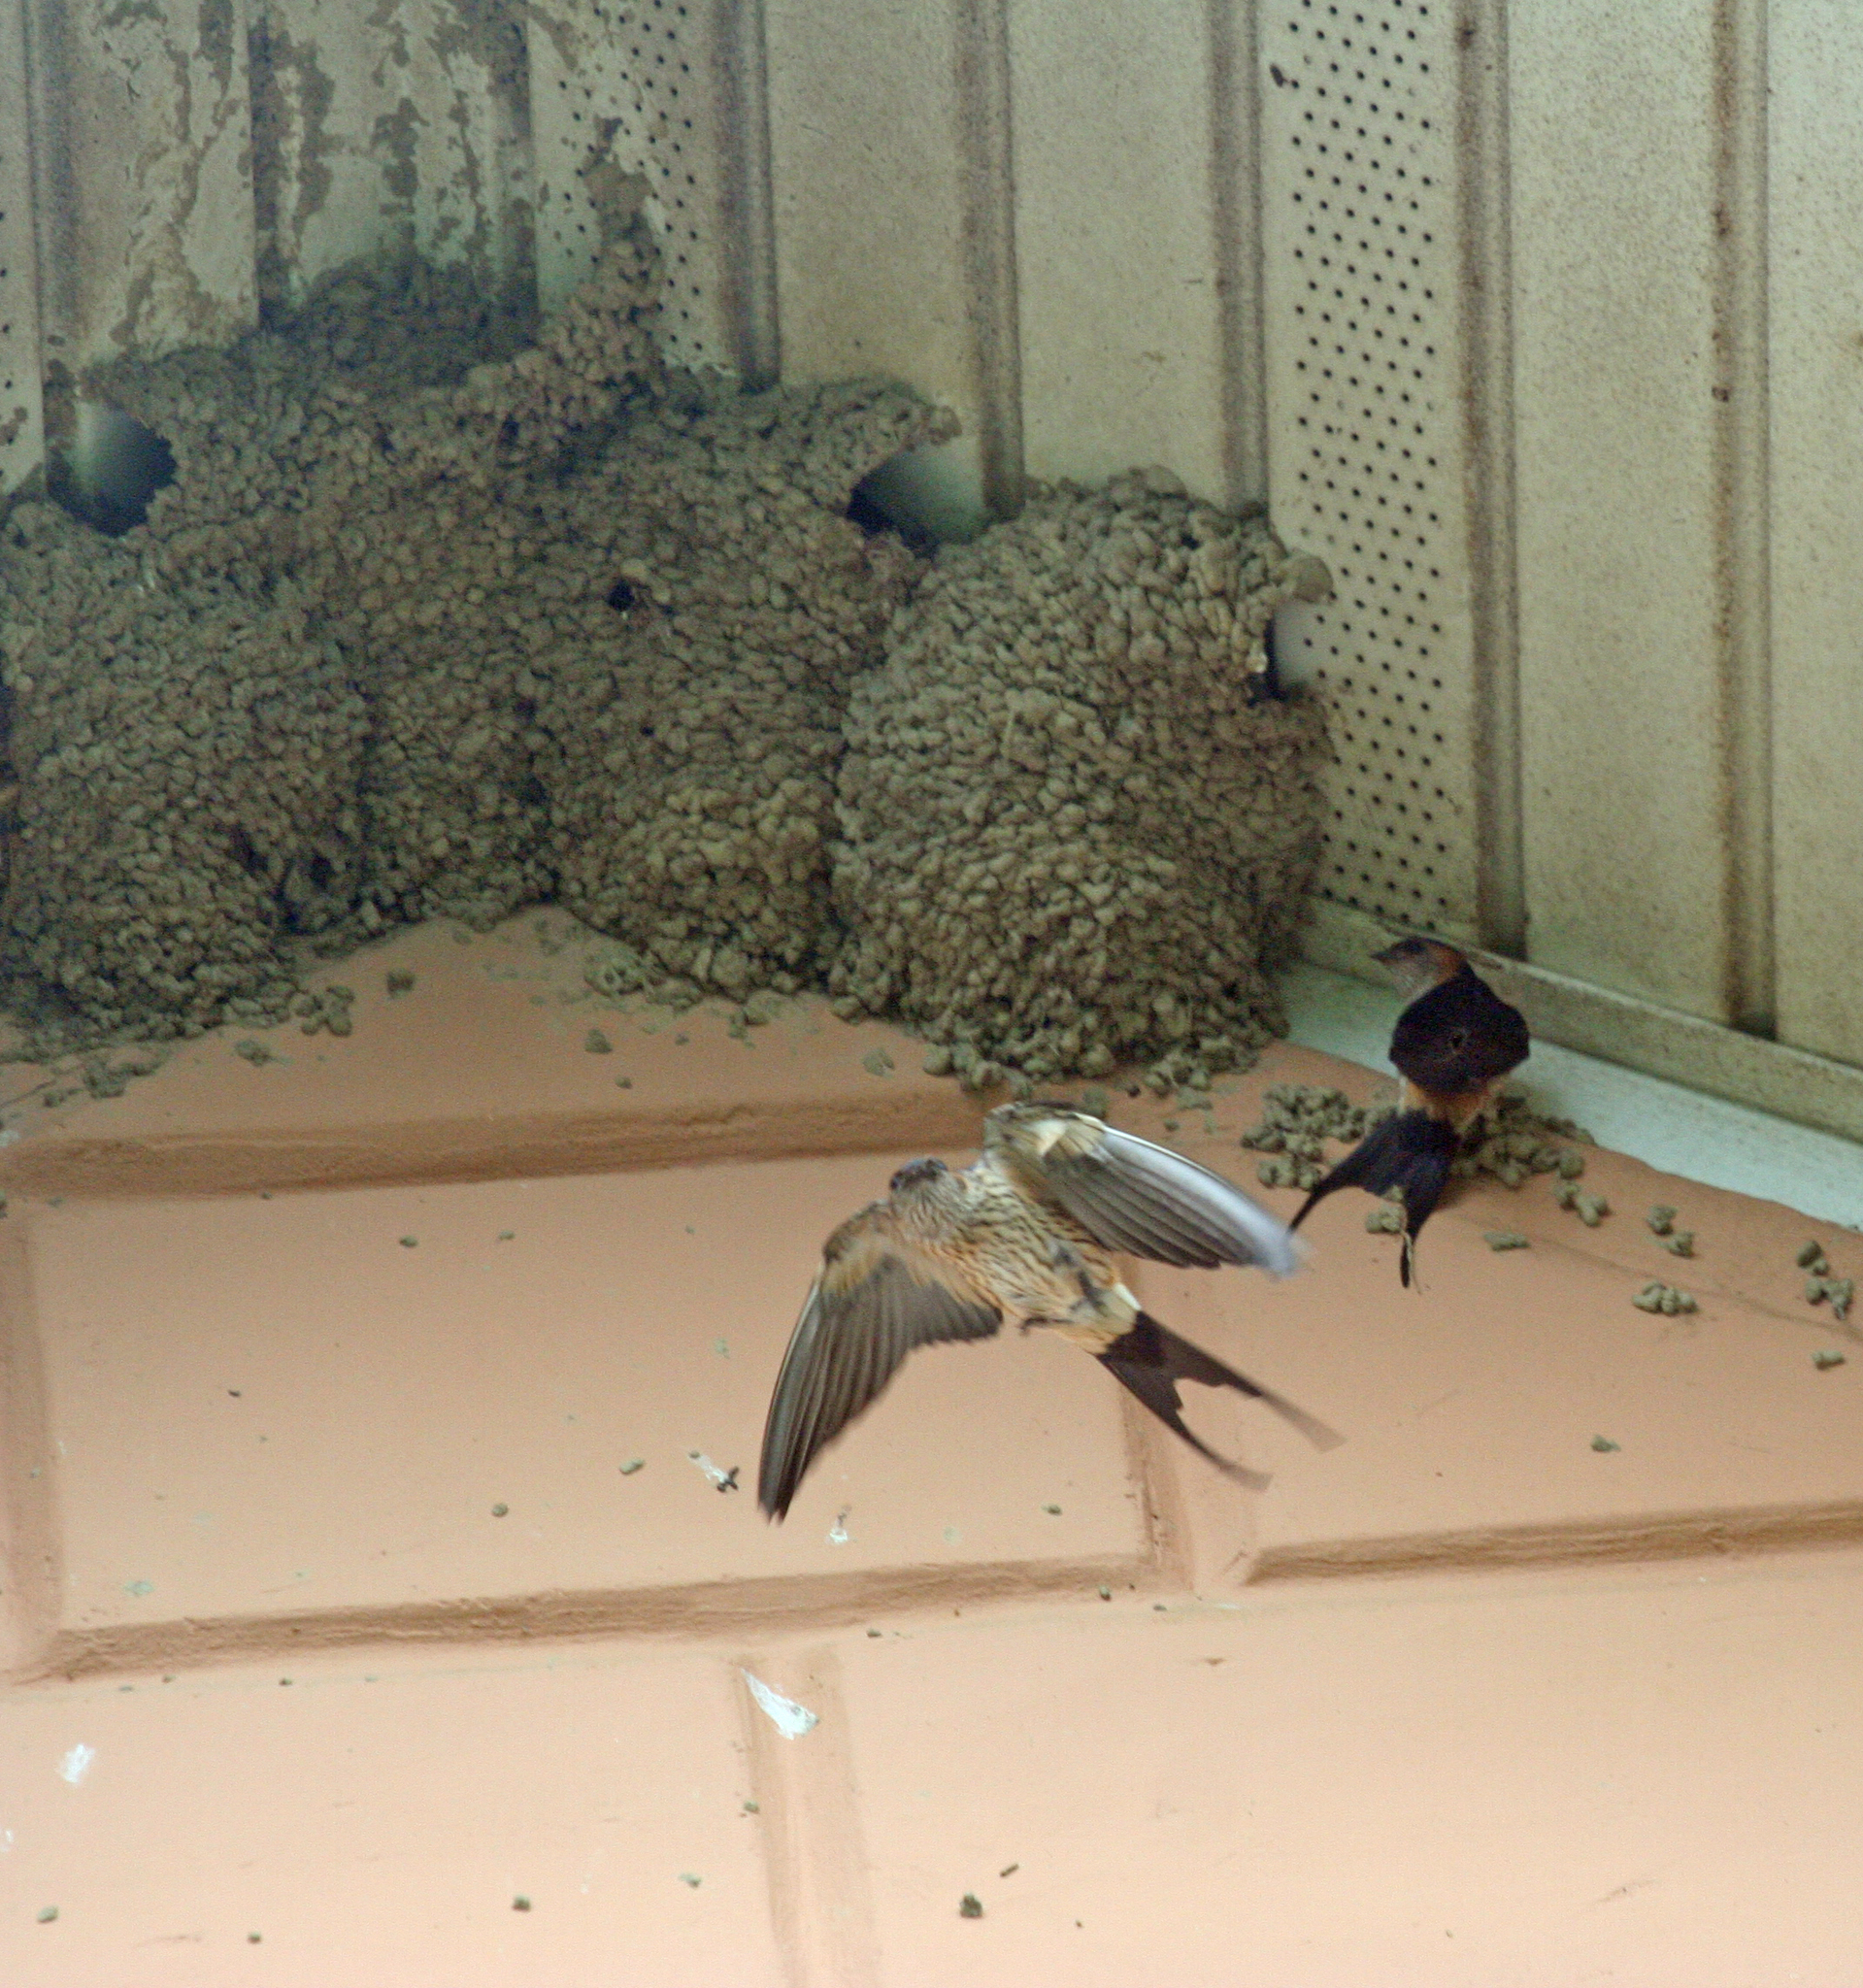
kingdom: Animalia
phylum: Chordata
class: Aves
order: Passeriformes
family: Hirundinidae
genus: Cecropis
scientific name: Cecropis daurica
